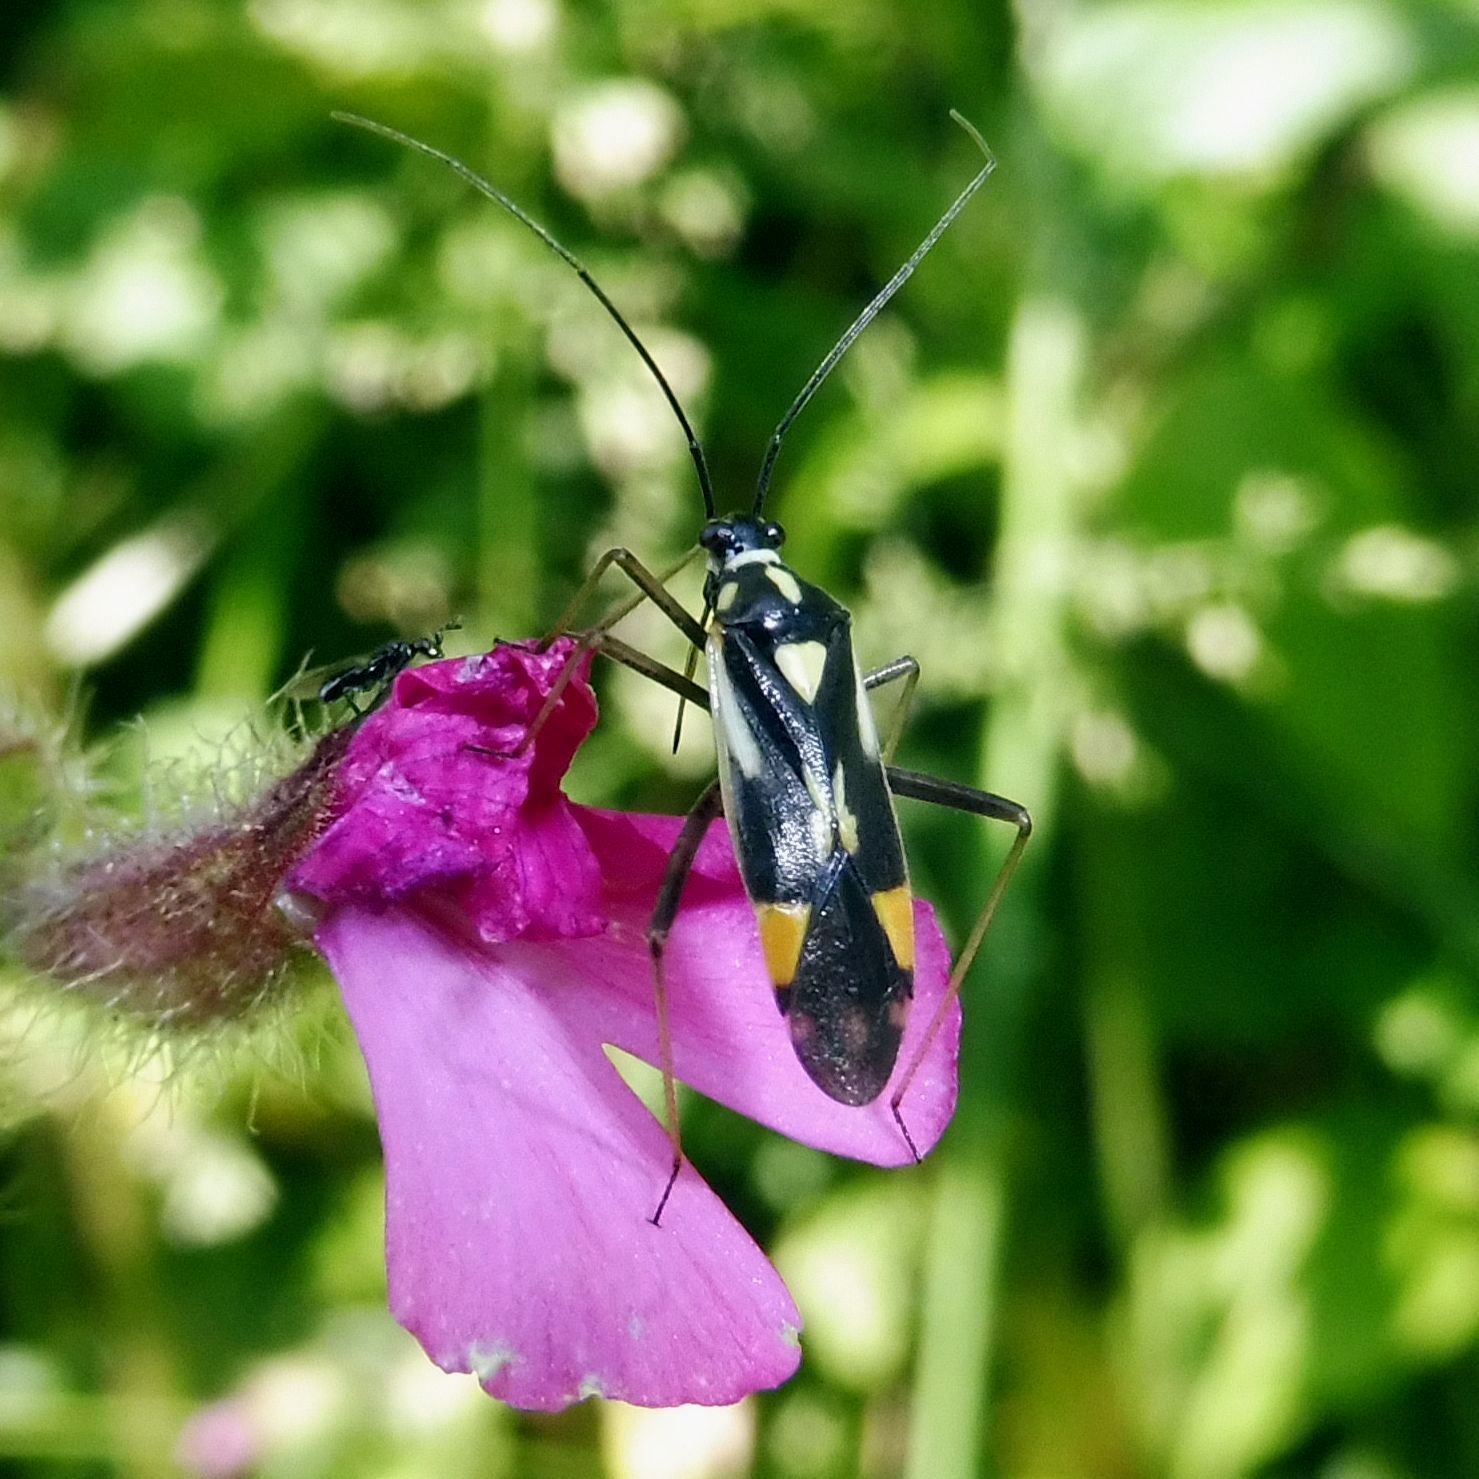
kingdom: Animalia
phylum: Arthropoda
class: Insecta
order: Hemiptera
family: Miridae
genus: Grypocoris
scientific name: Grypocoris stysi
